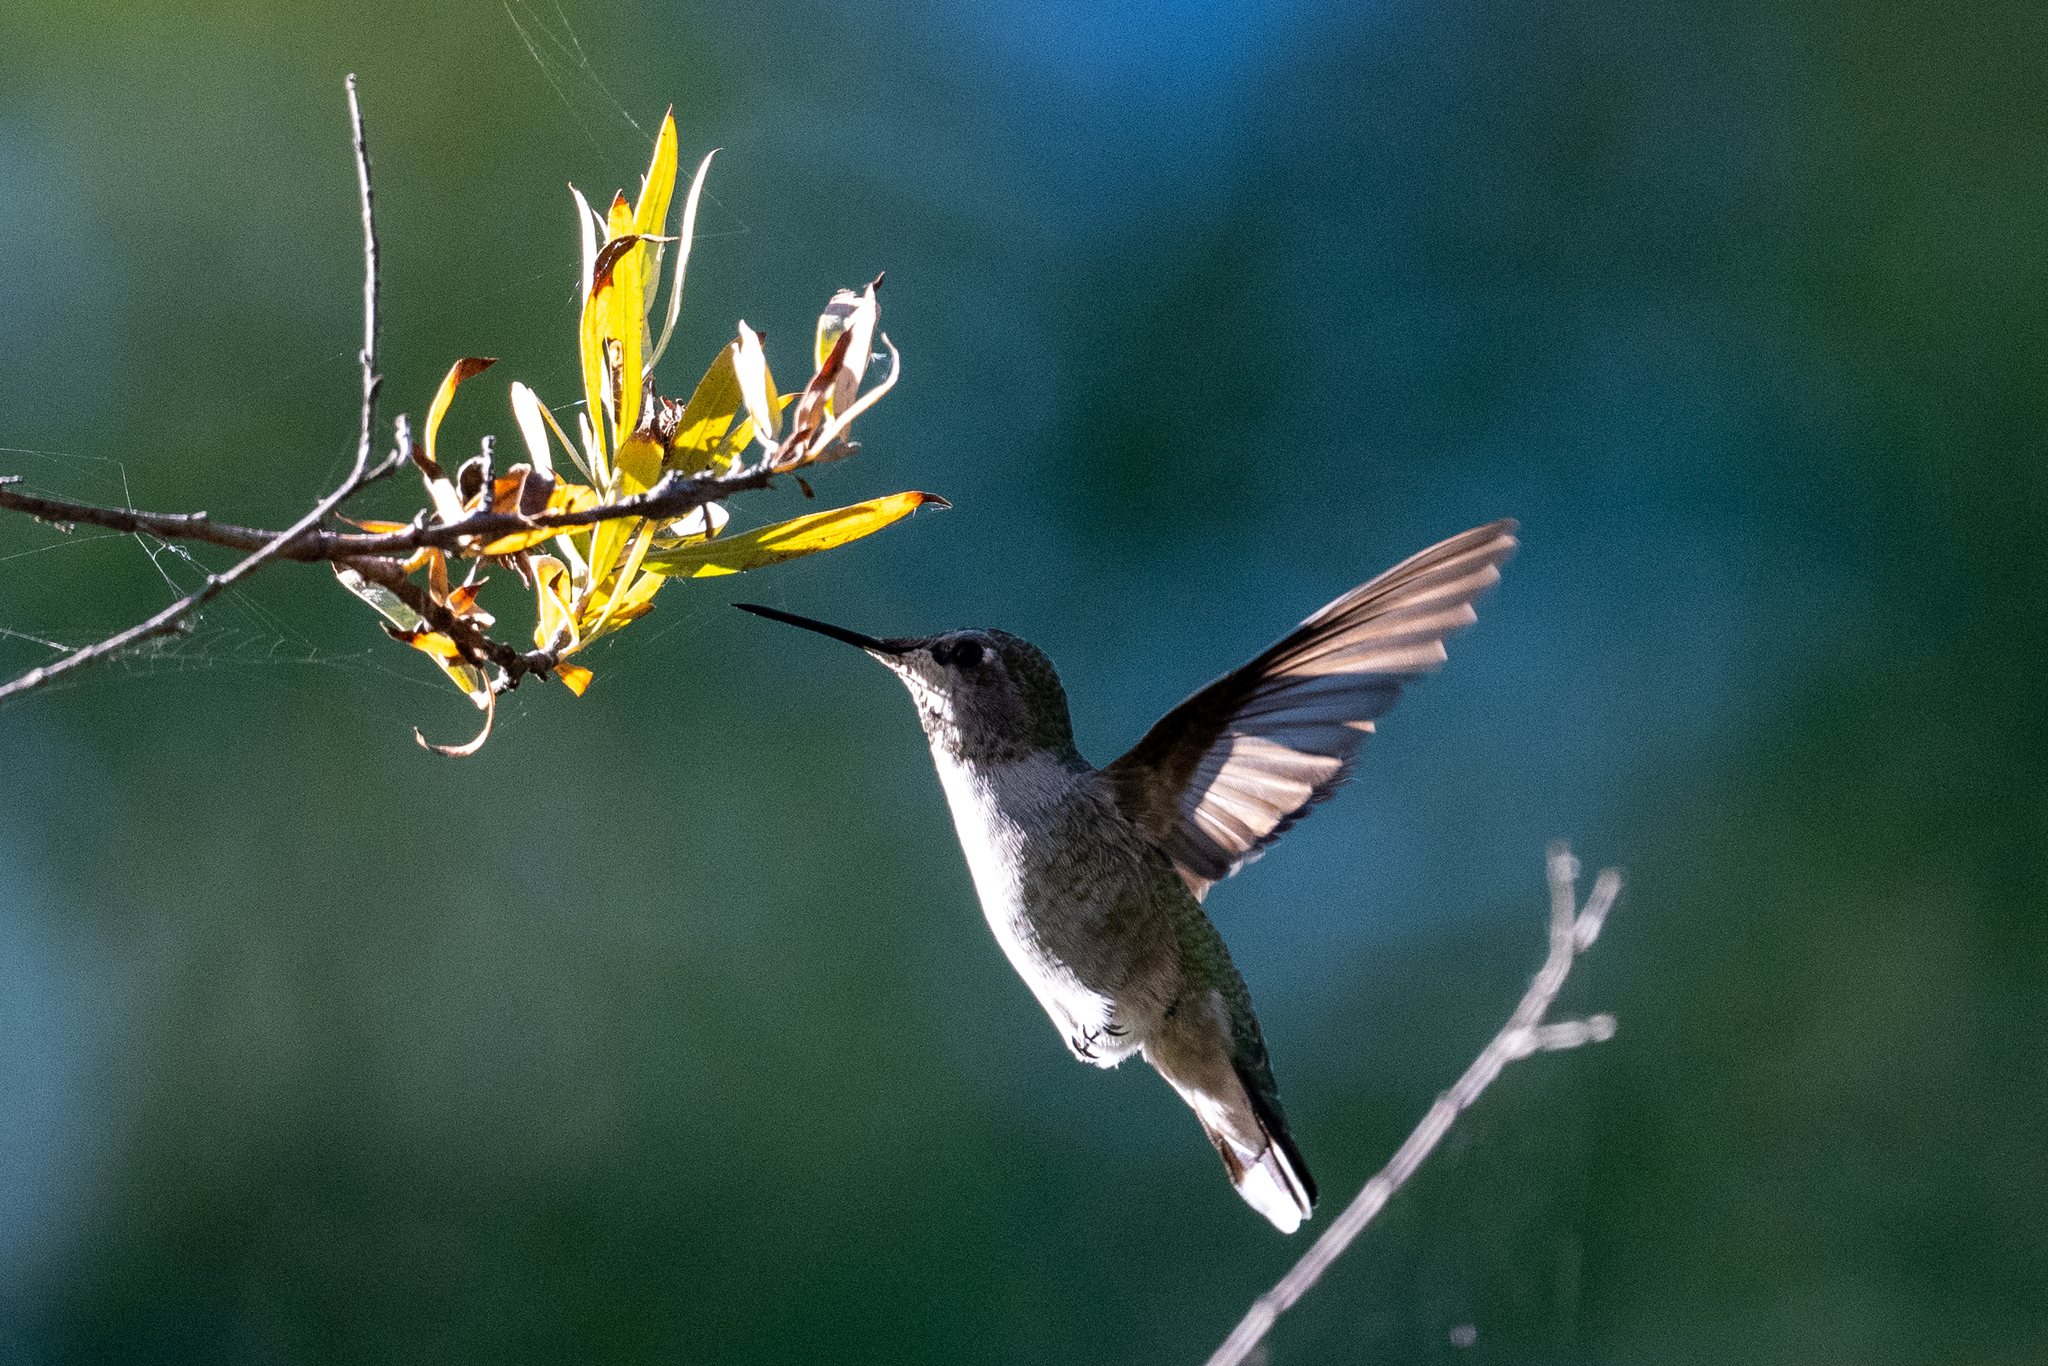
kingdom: Animalia
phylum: Chordata
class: Aves
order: Apodiformes
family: Trochilidae
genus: Calypte
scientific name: Calypte anna
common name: Anna's hummingbird
